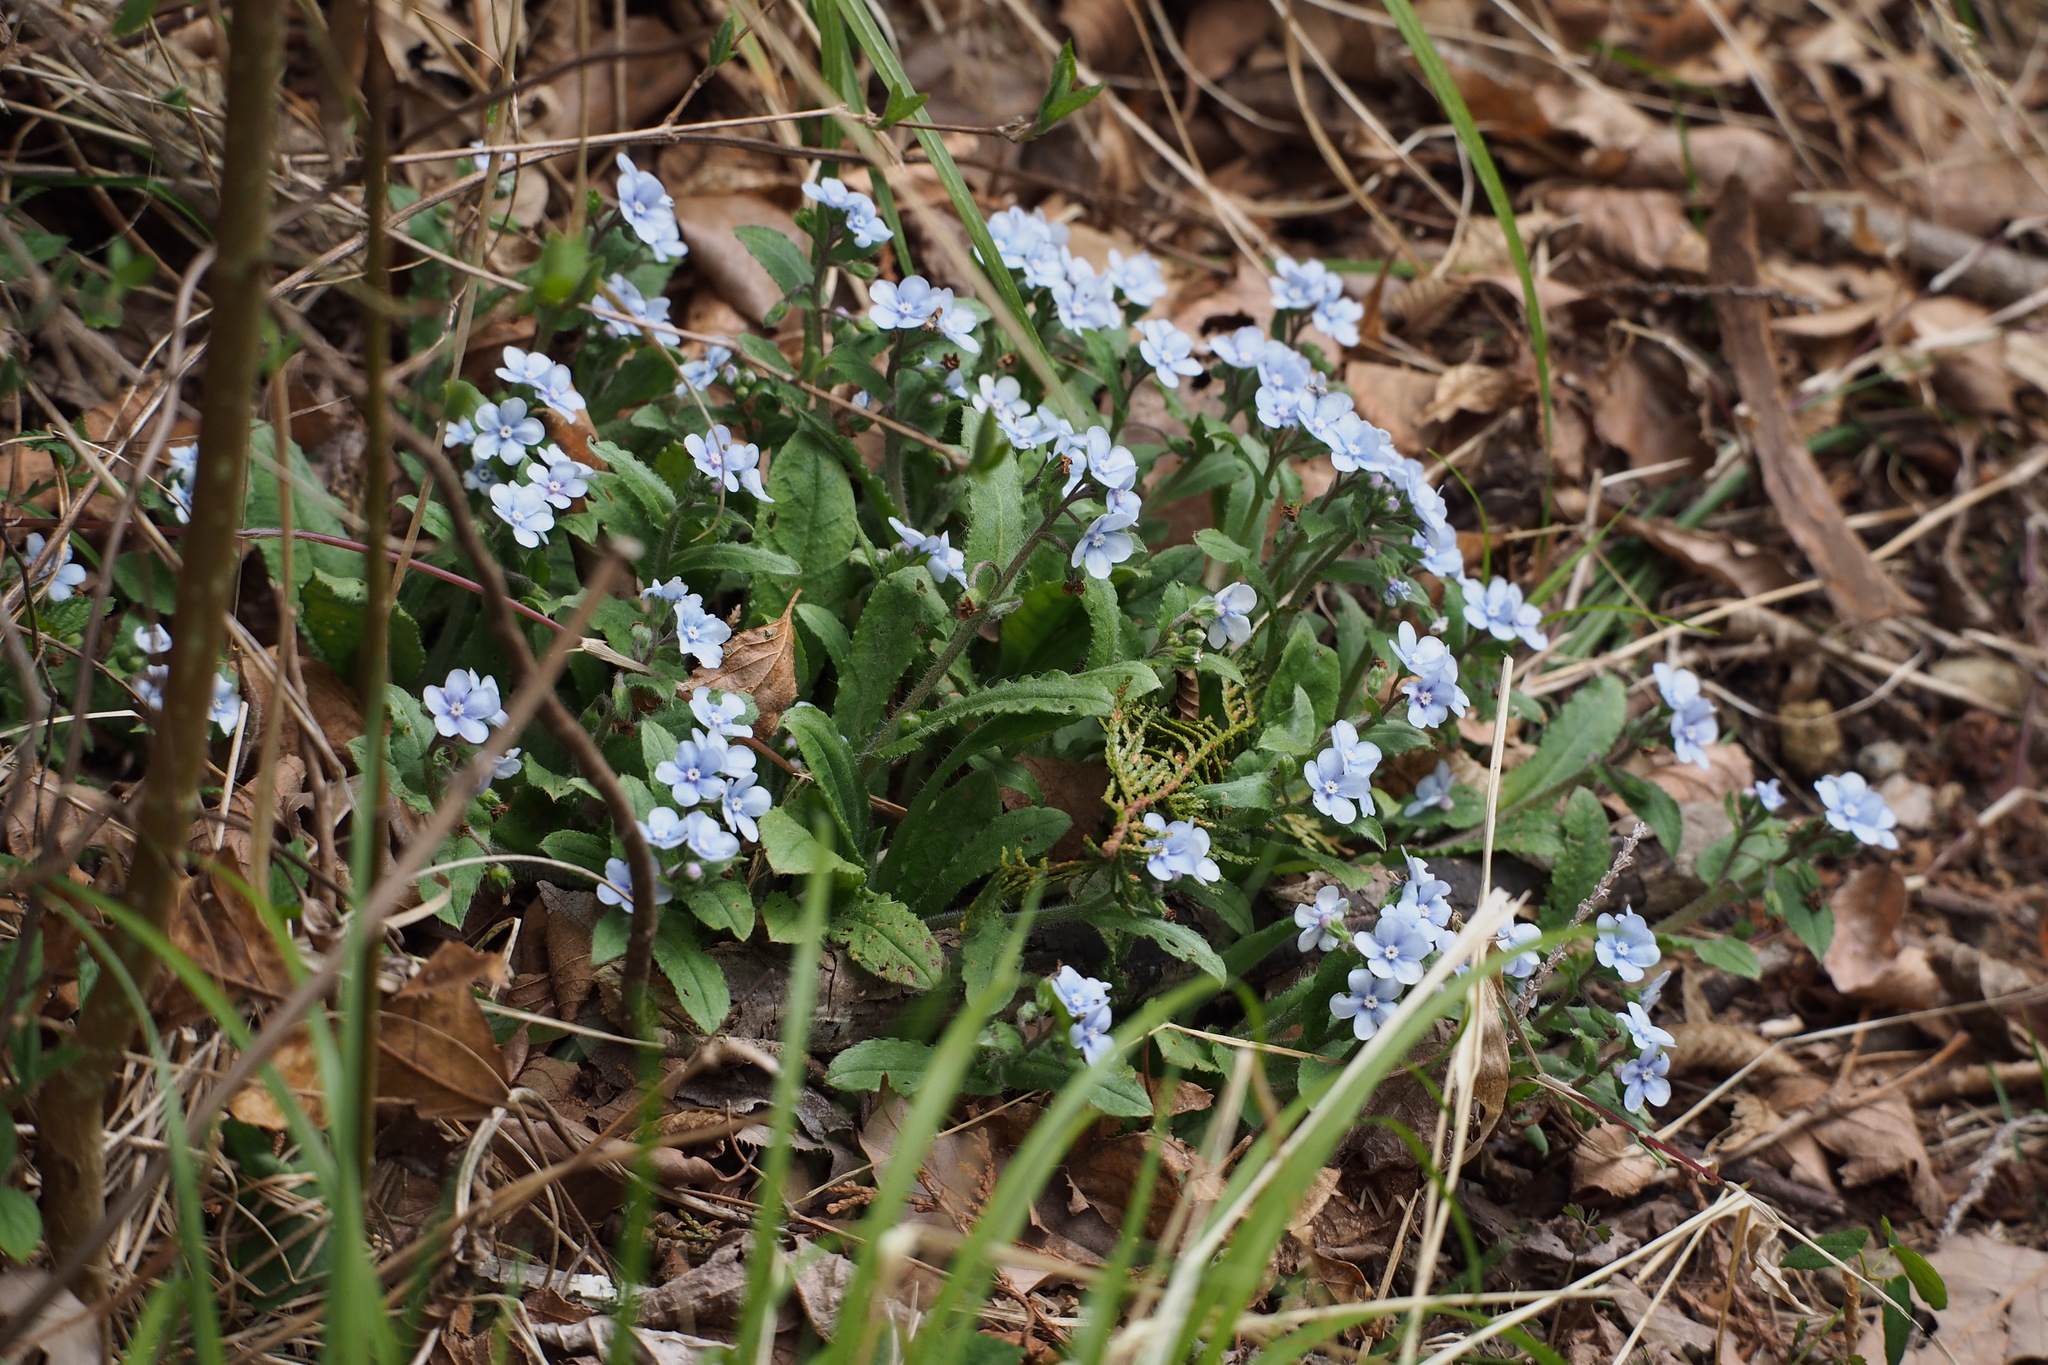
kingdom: Plantae
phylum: Tracheophyta
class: Magnoliopsida
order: Boraginales
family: Boraginaceae
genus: Nihon
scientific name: Nihon japonicum
